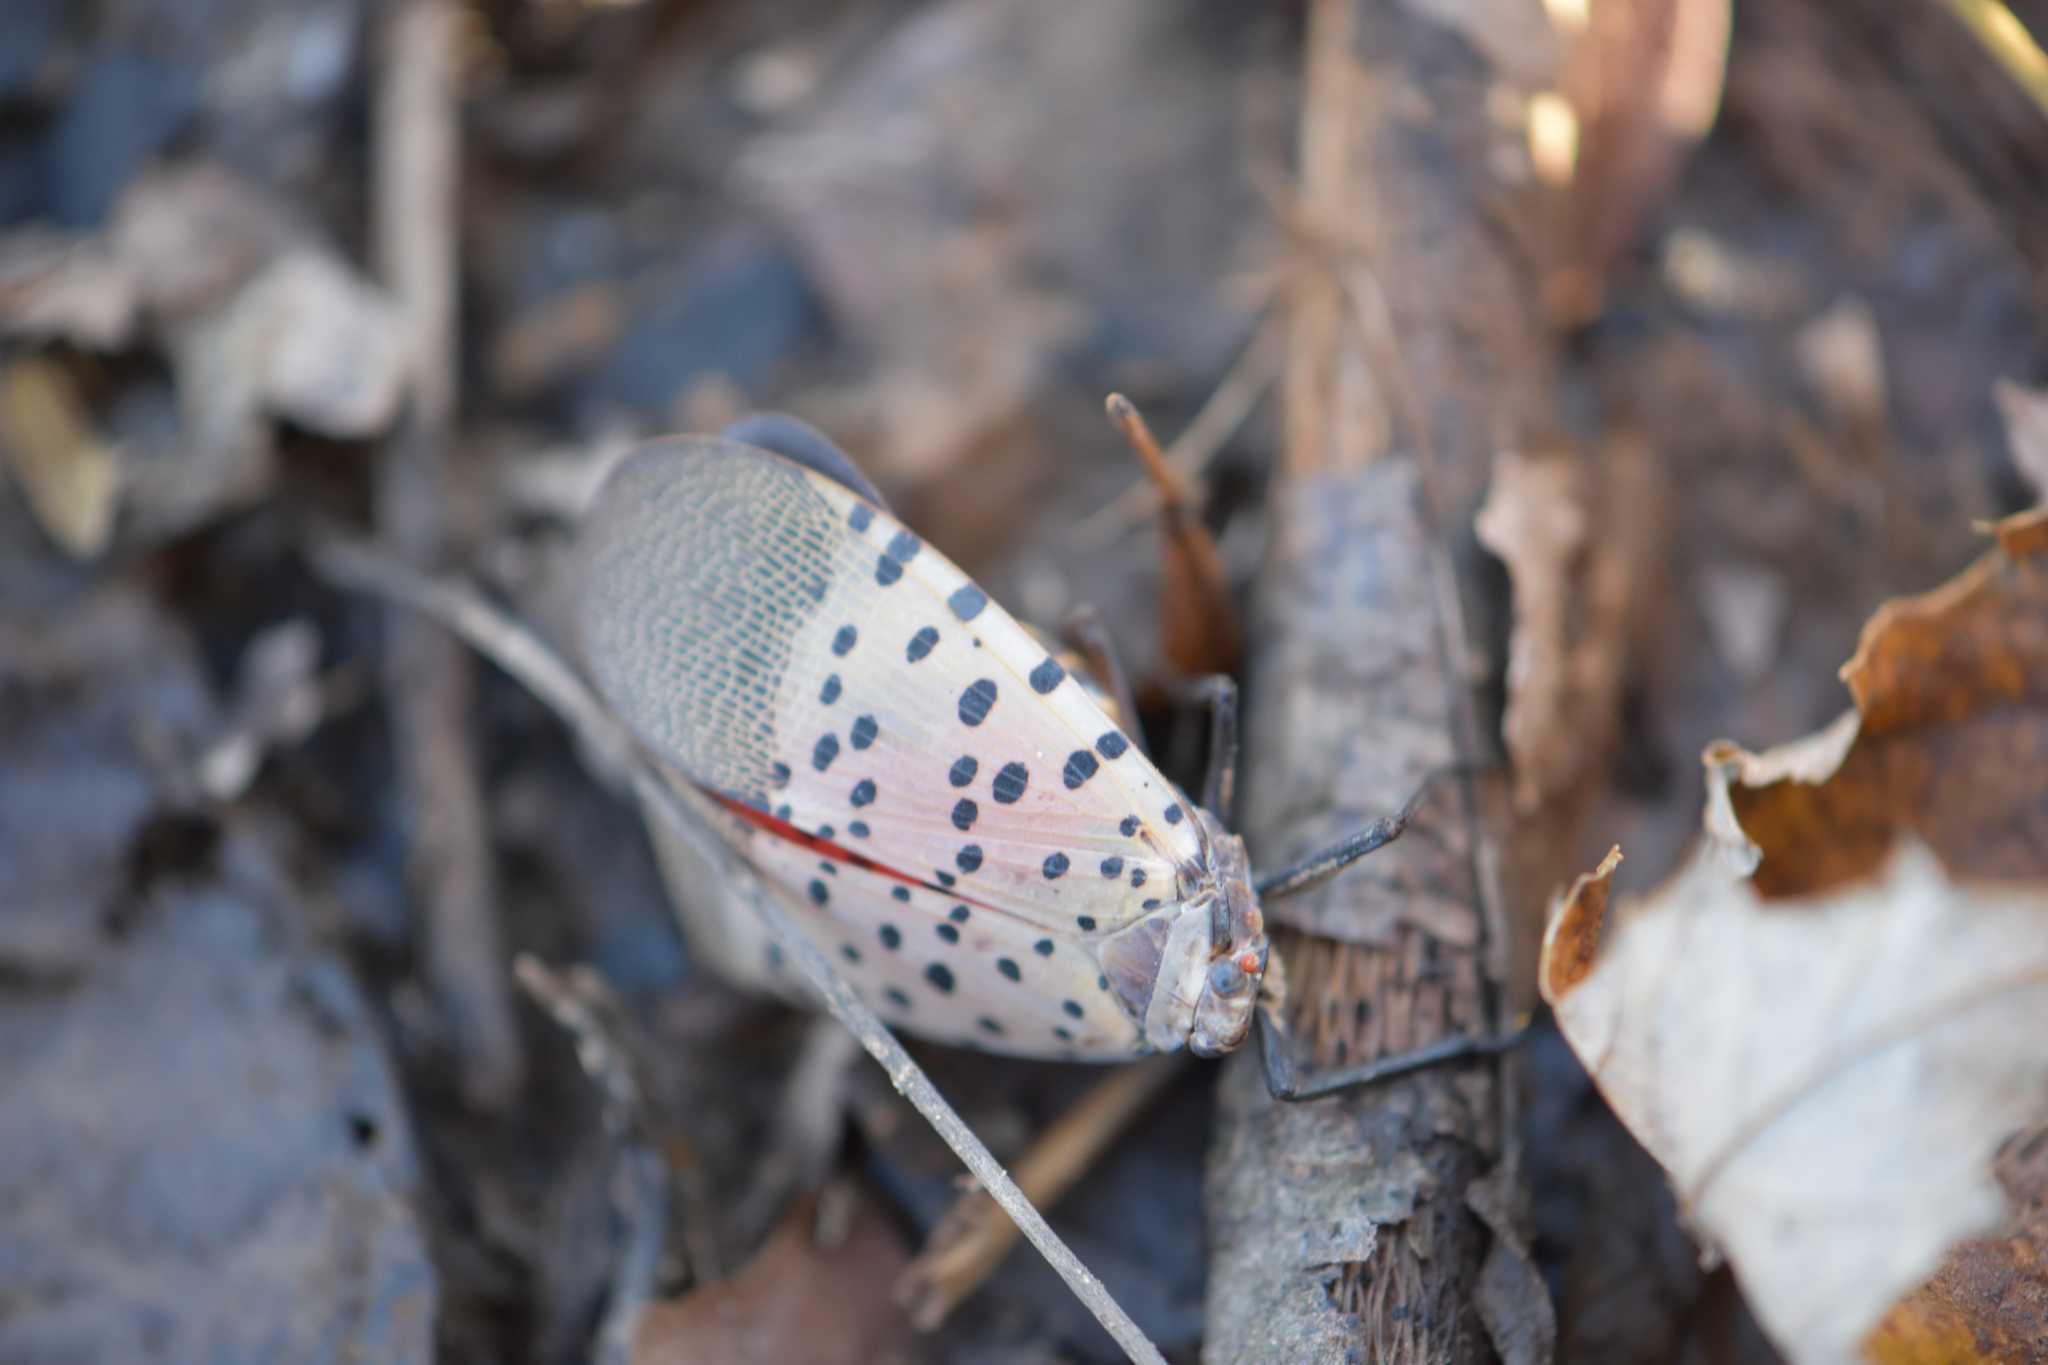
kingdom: Animalia
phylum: Arthropoda
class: Insecta
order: Hemiptera
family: Fulgoridae
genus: Lycorma
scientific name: Lycorma delicatula
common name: Spotted lanternfly
